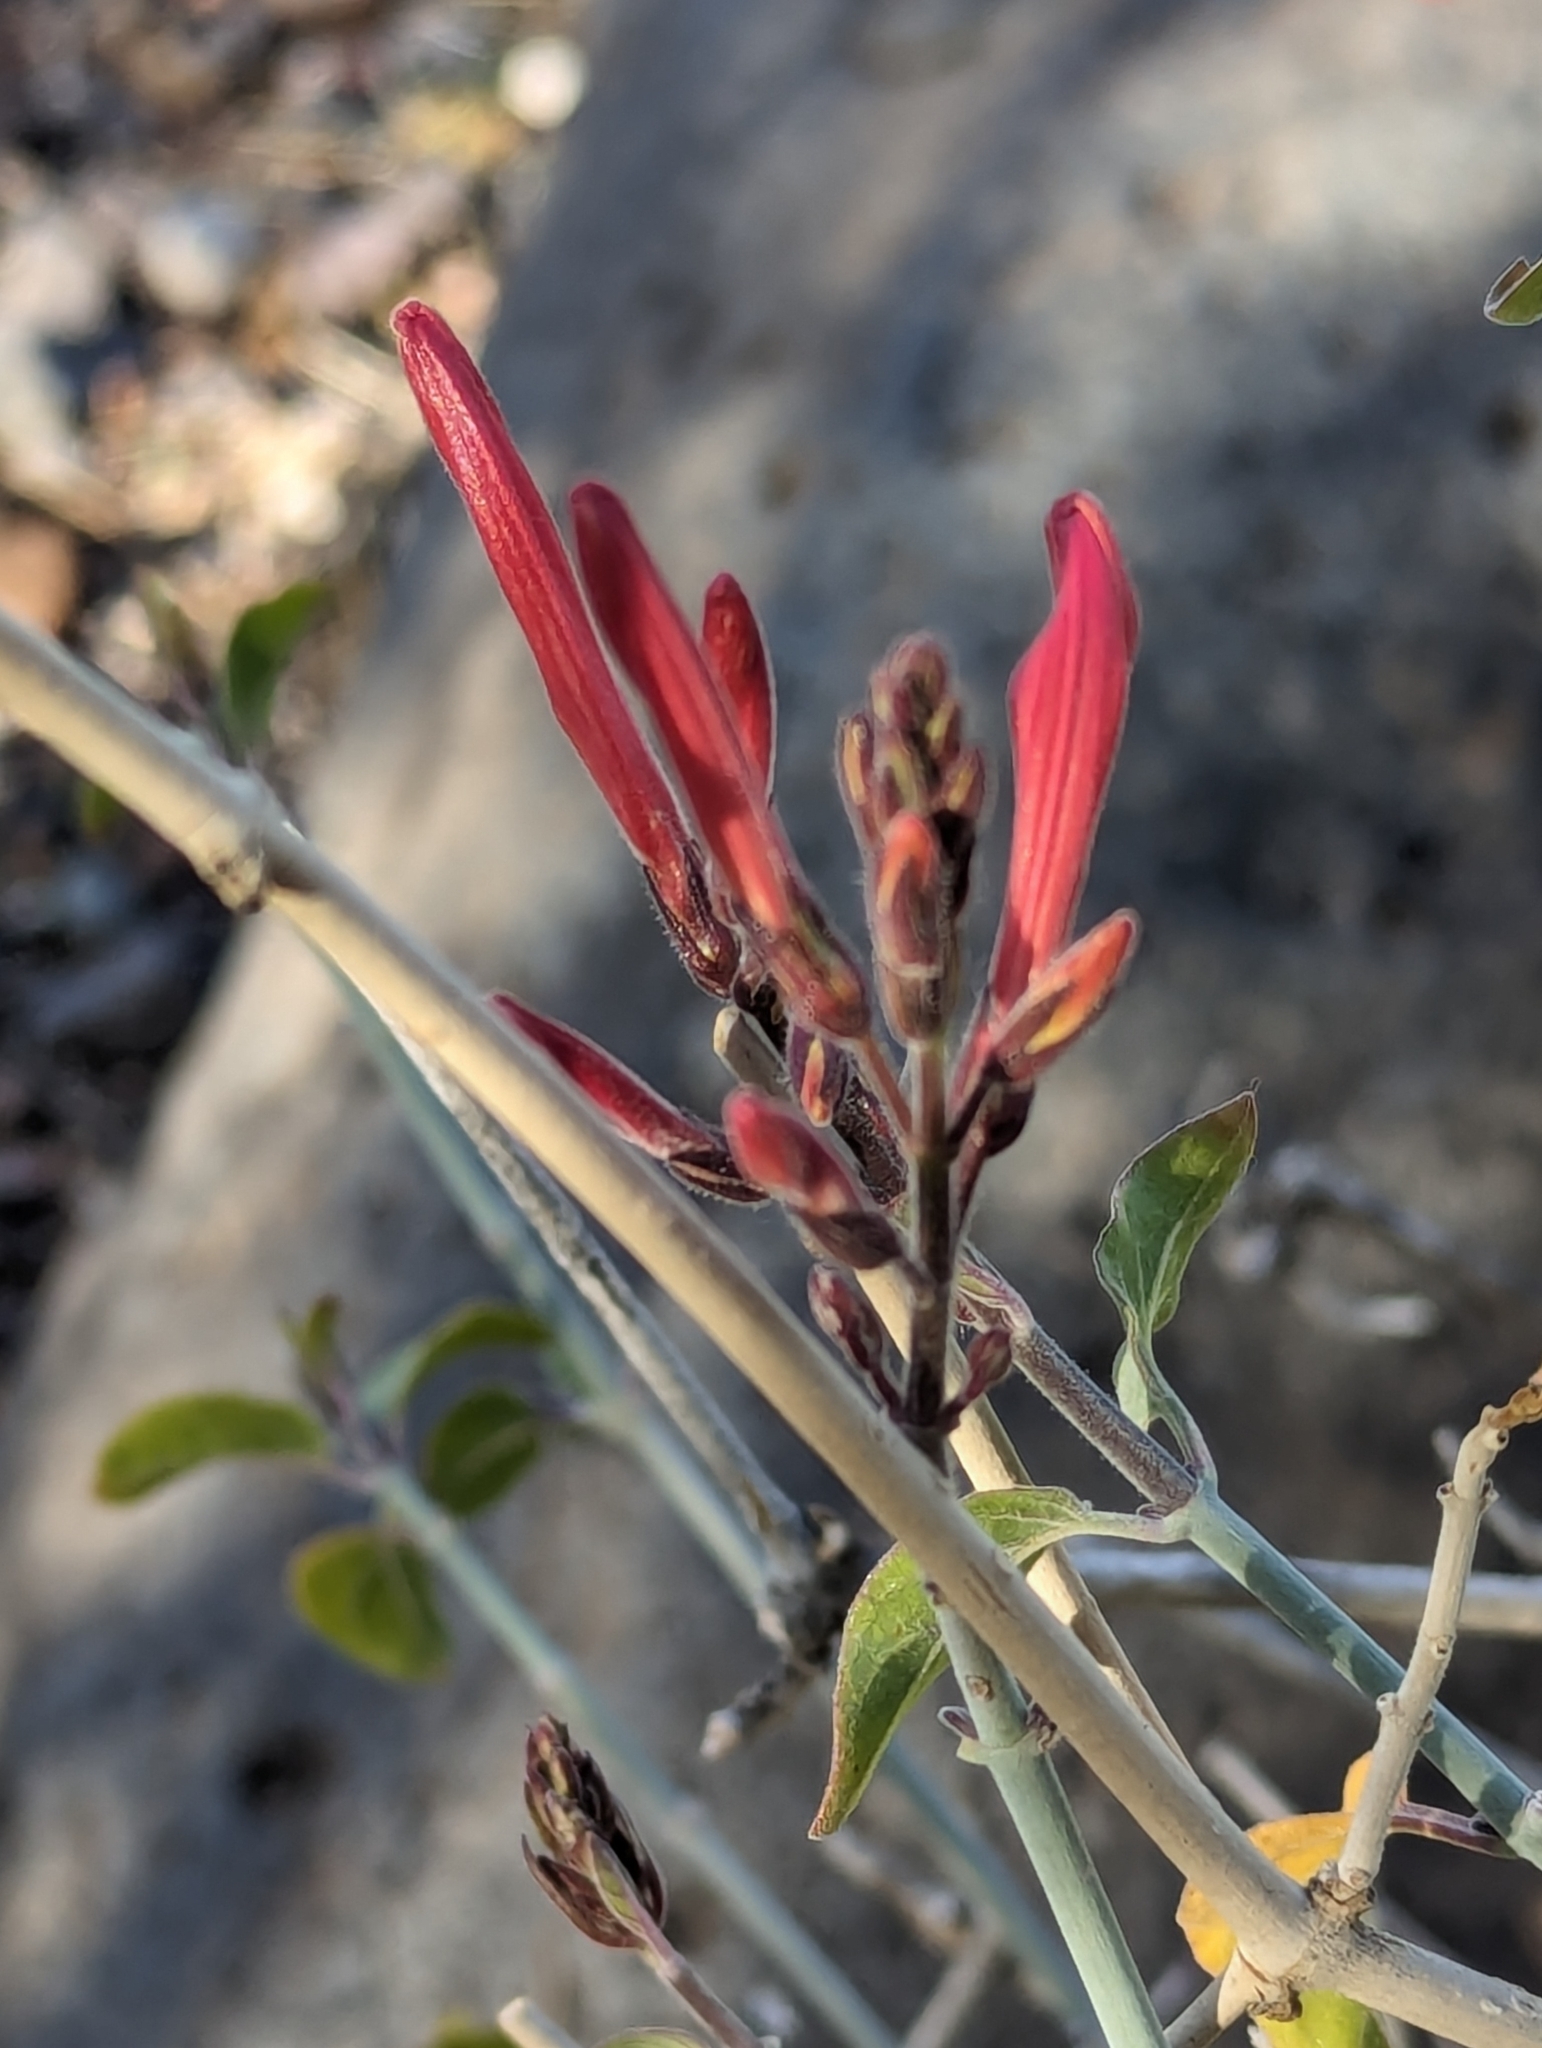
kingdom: Plantae
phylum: Tracheophyta
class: Magnoliopsida
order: Lamiales
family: Acanthaceae
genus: Justicia
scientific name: Justicia californica
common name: Chuparosa-honeysuckle
